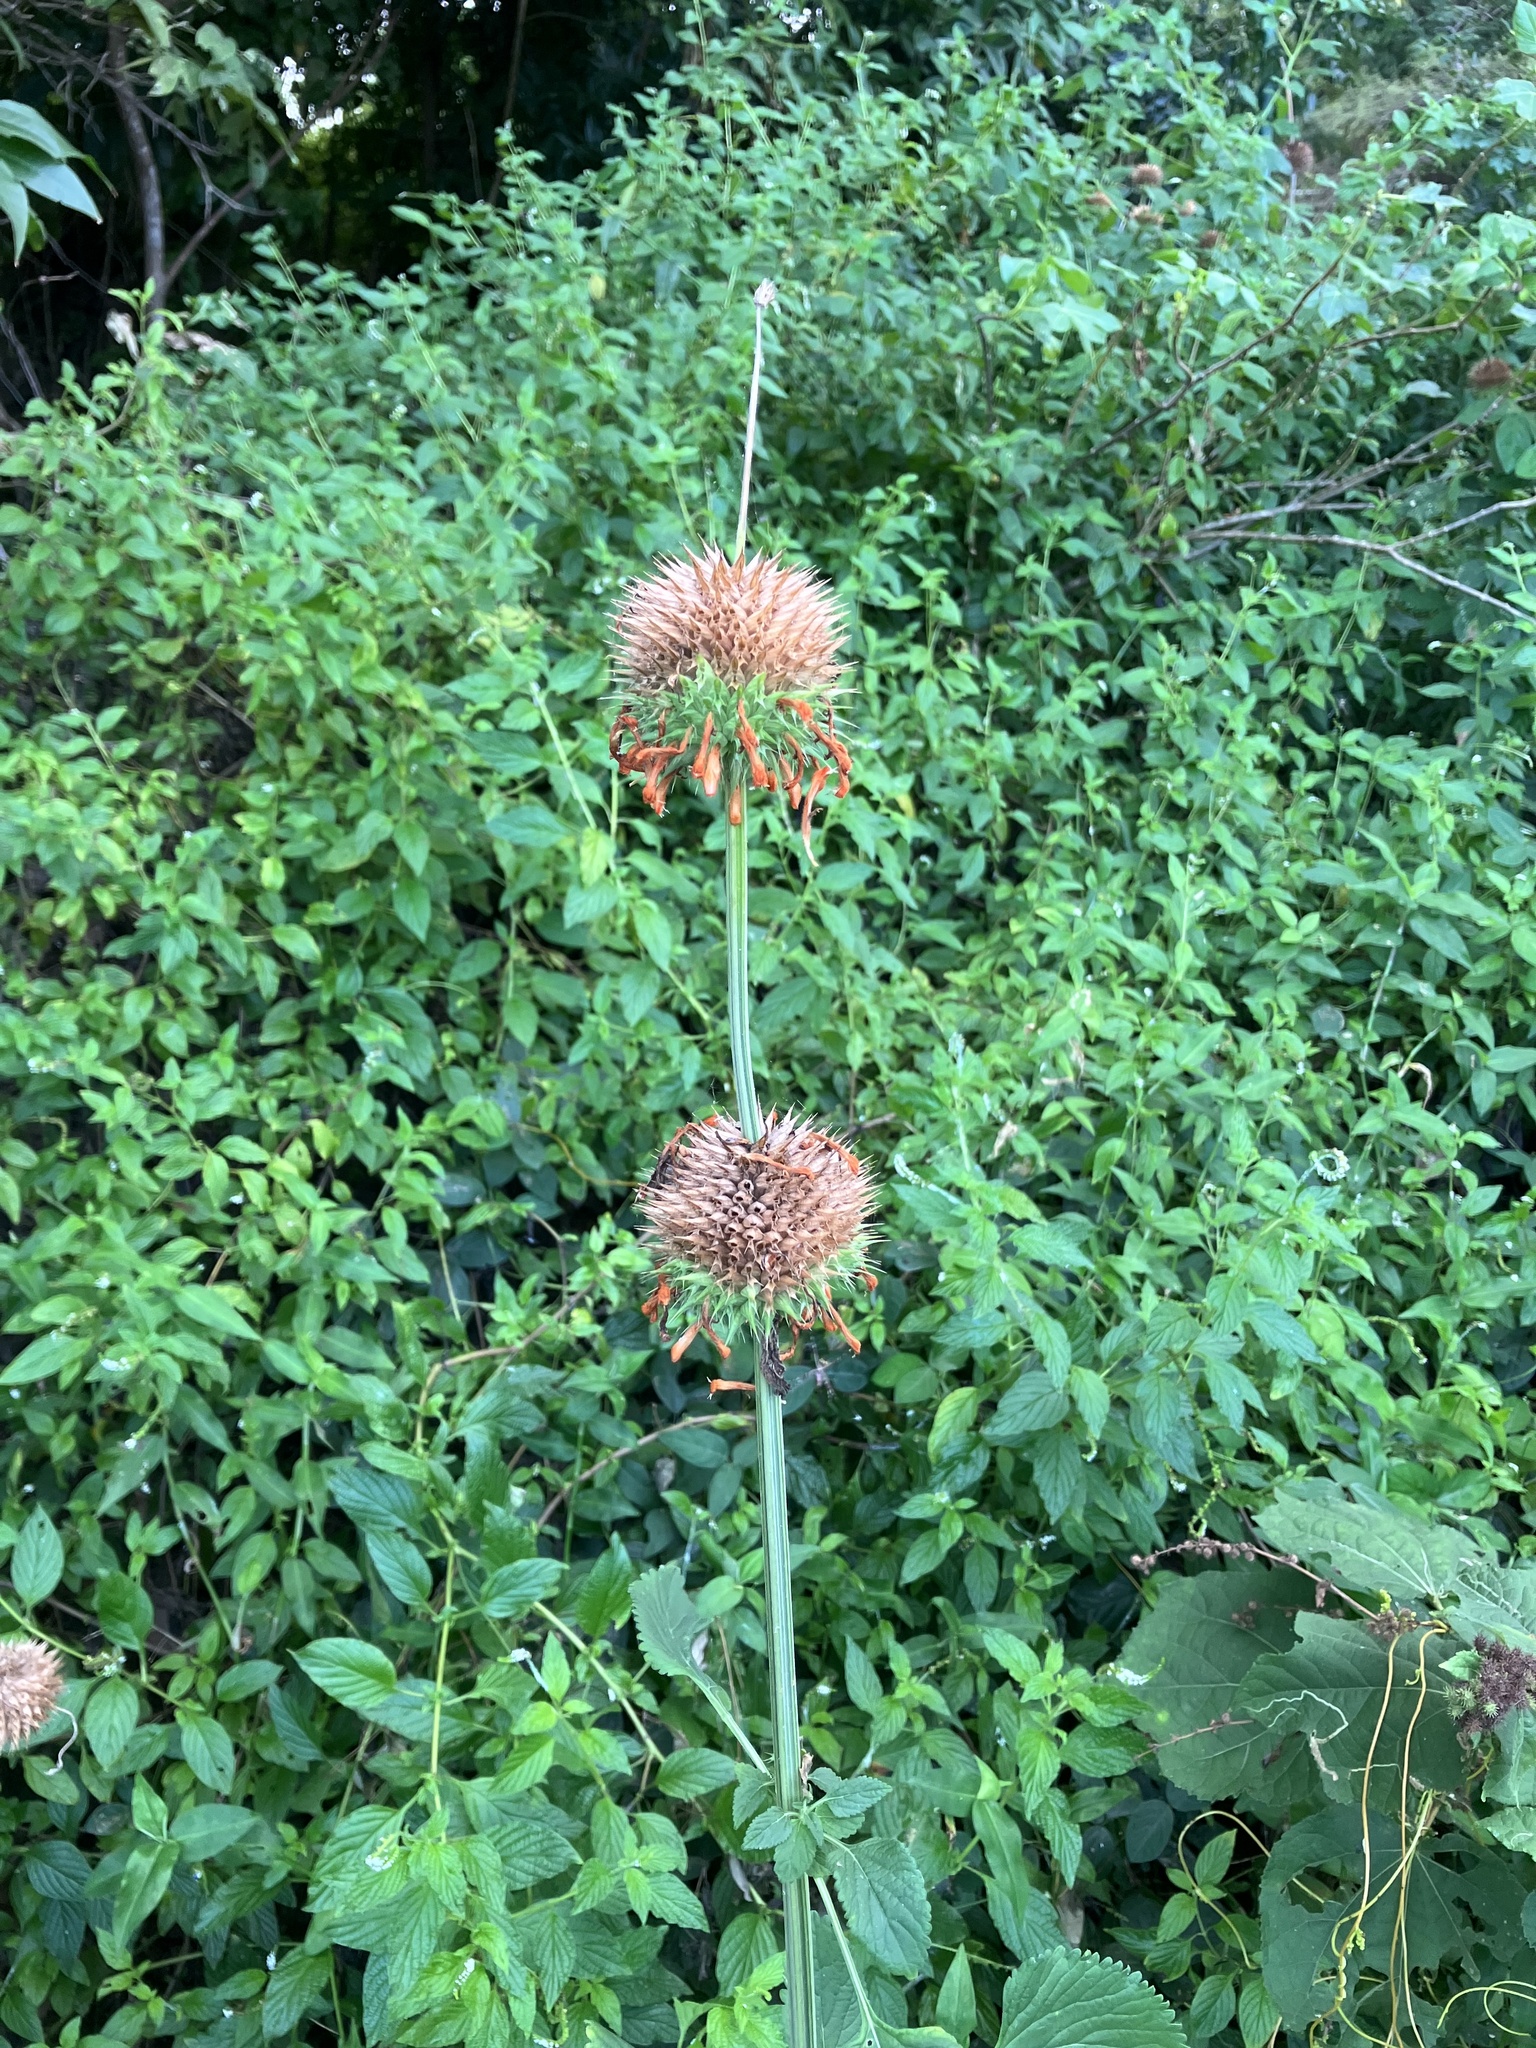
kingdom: Plantae
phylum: Tracheophyta
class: Magnoliopsida
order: Lamiales
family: Lamiaceae
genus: Leonotis
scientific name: Leonotis nepetifolia
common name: Christmas candlestick
